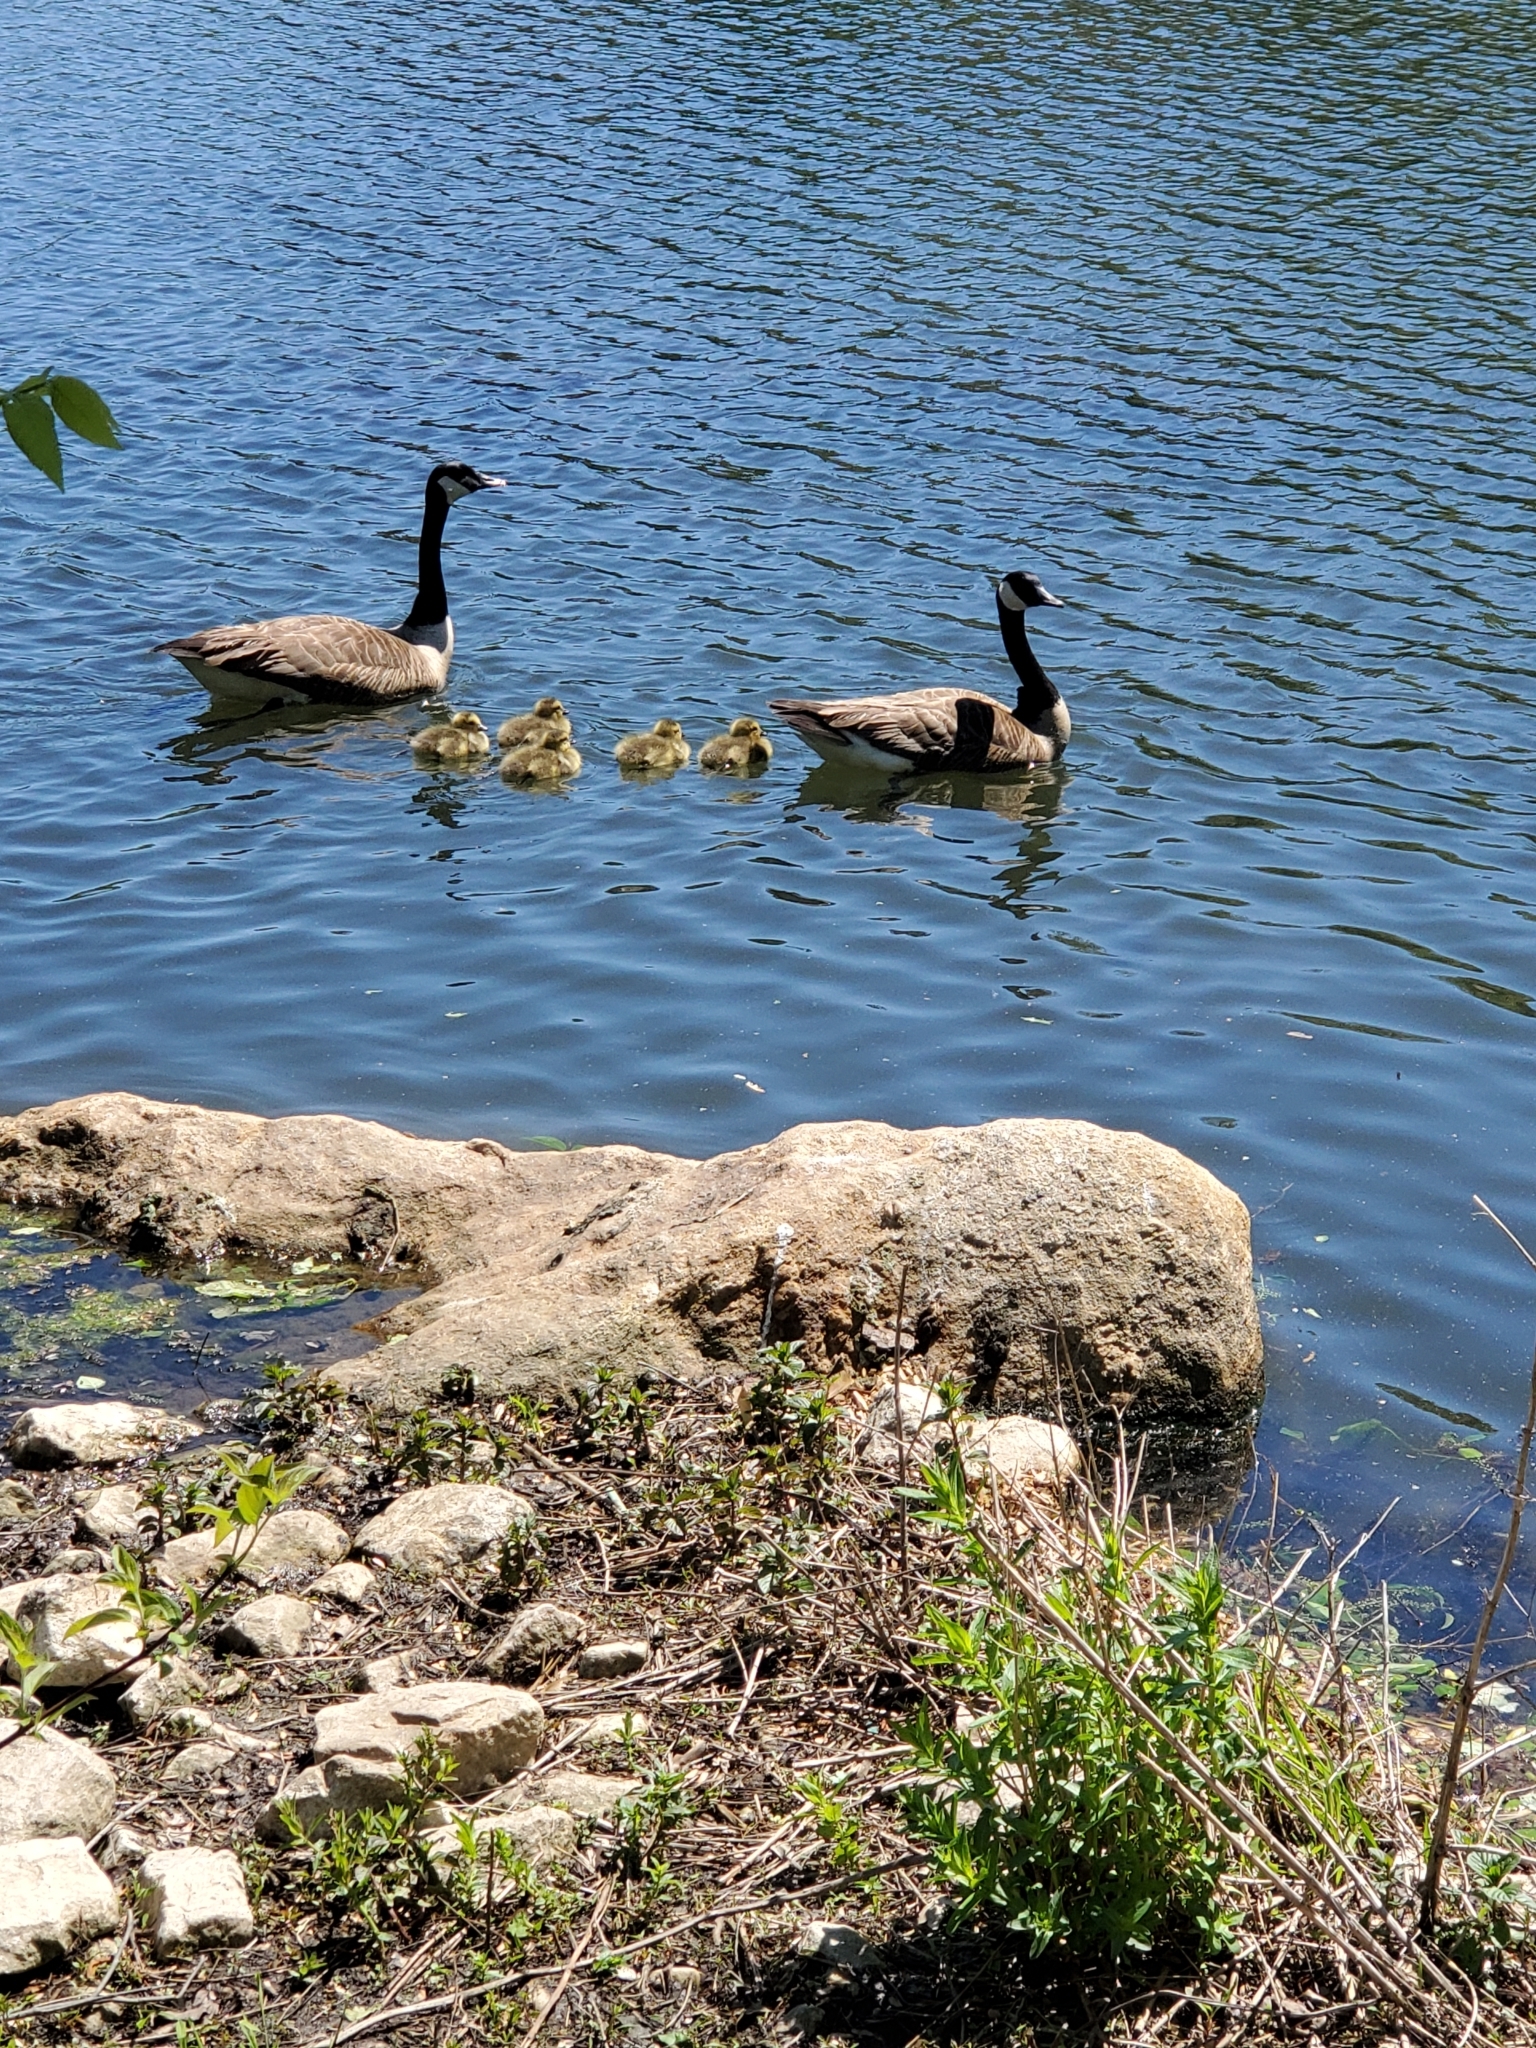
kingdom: Animalia
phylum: Chordata
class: Aves
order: Anseriformes
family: Anatidae
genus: Branta
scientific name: Branta canadensis
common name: Canada goose
